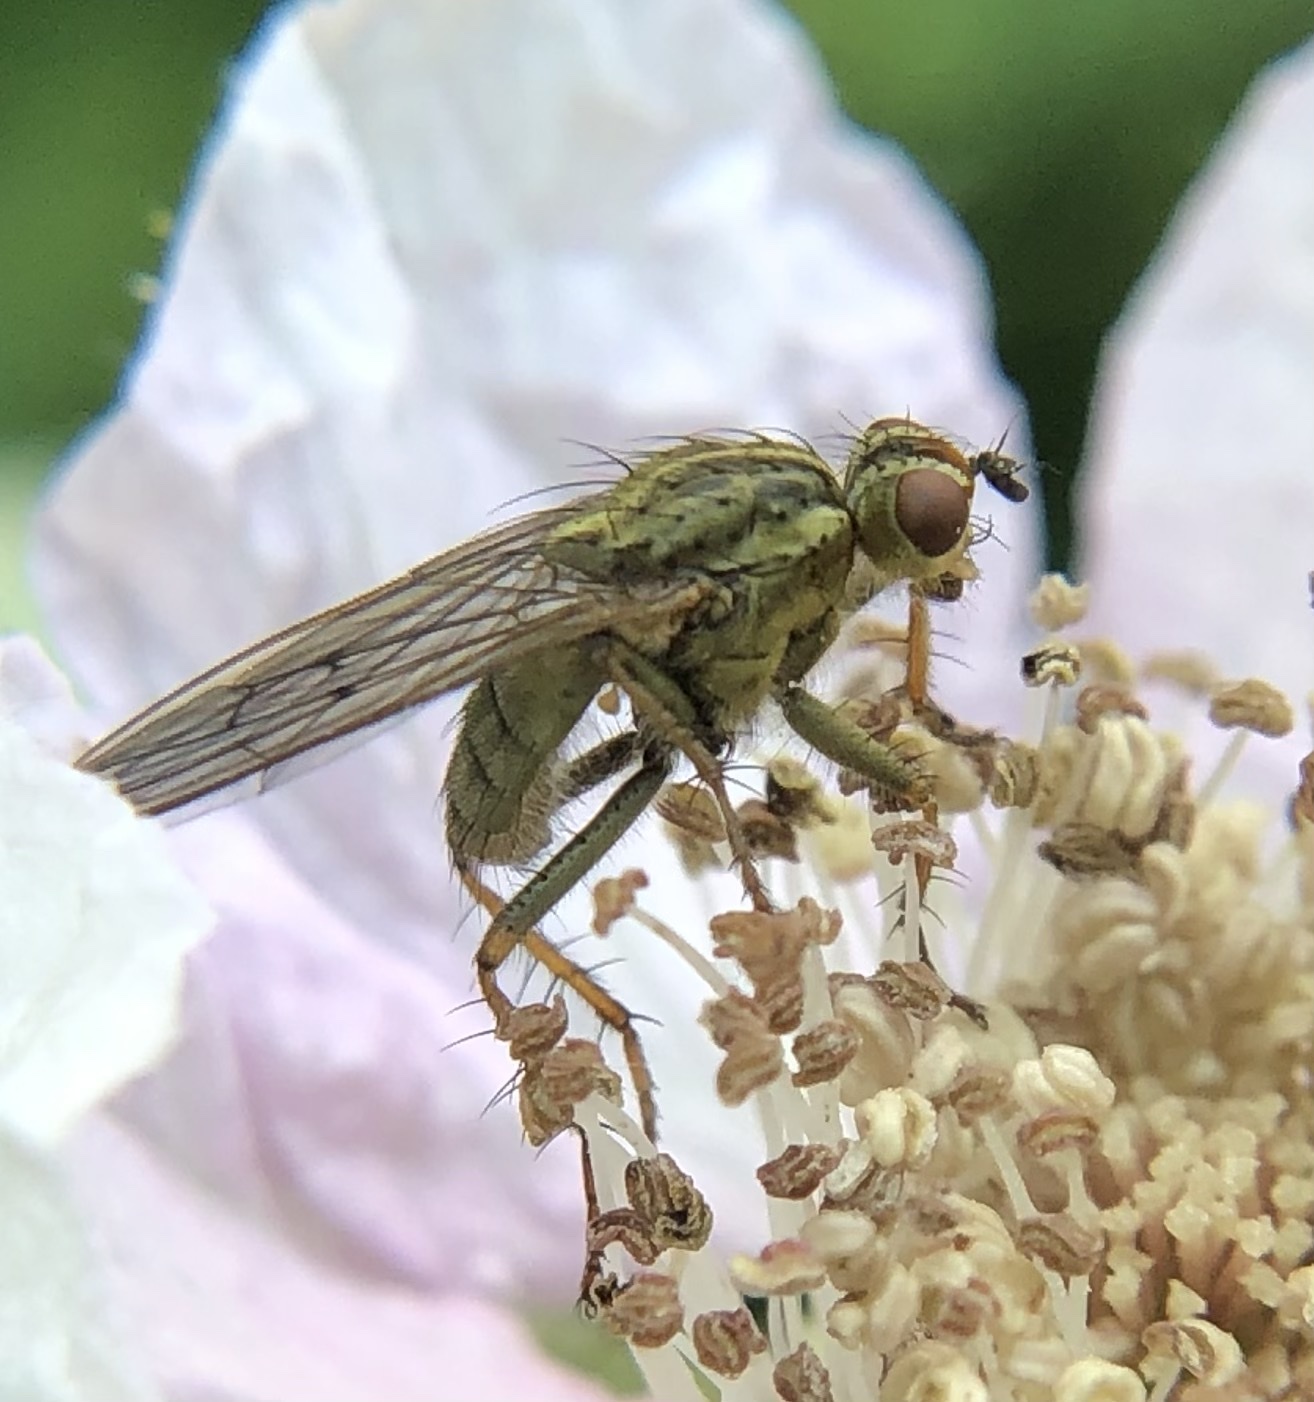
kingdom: Animalia
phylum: Arthropoda
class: Insecta
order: Diptera
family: Scathophagidae
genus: Scathophaga
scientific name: Scathophaga stercoraria
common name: Yellow dung fly
